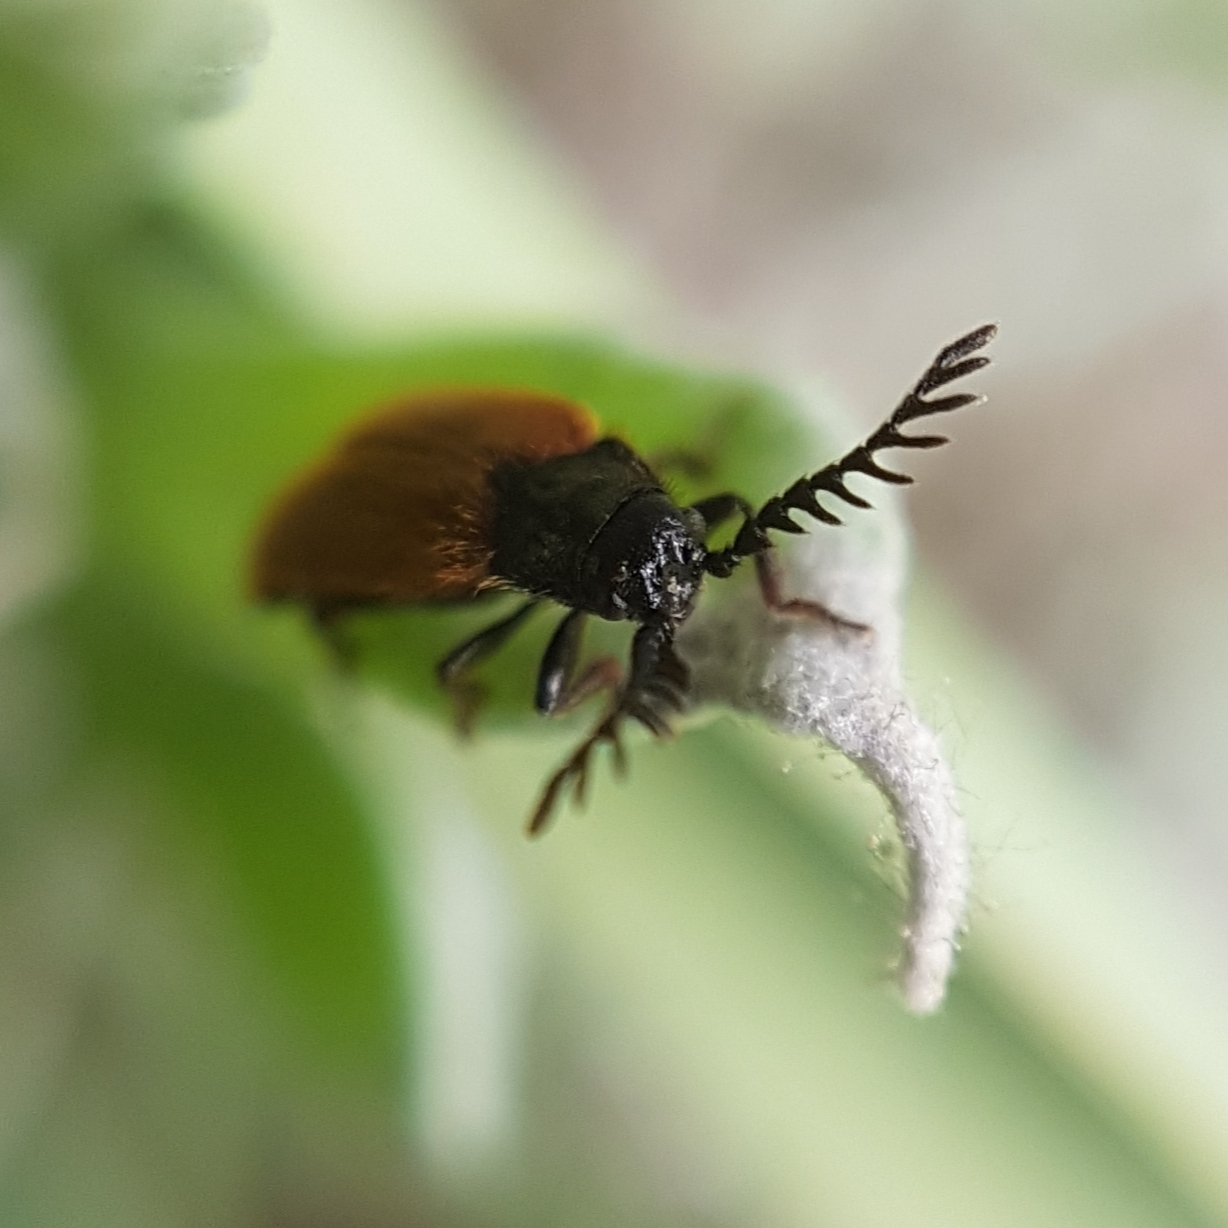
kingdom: Animalia
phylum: Arthropoda
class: Insecta
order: Coleoptera
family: Drilidae
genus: Drilus
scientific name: Drilus flavescens
